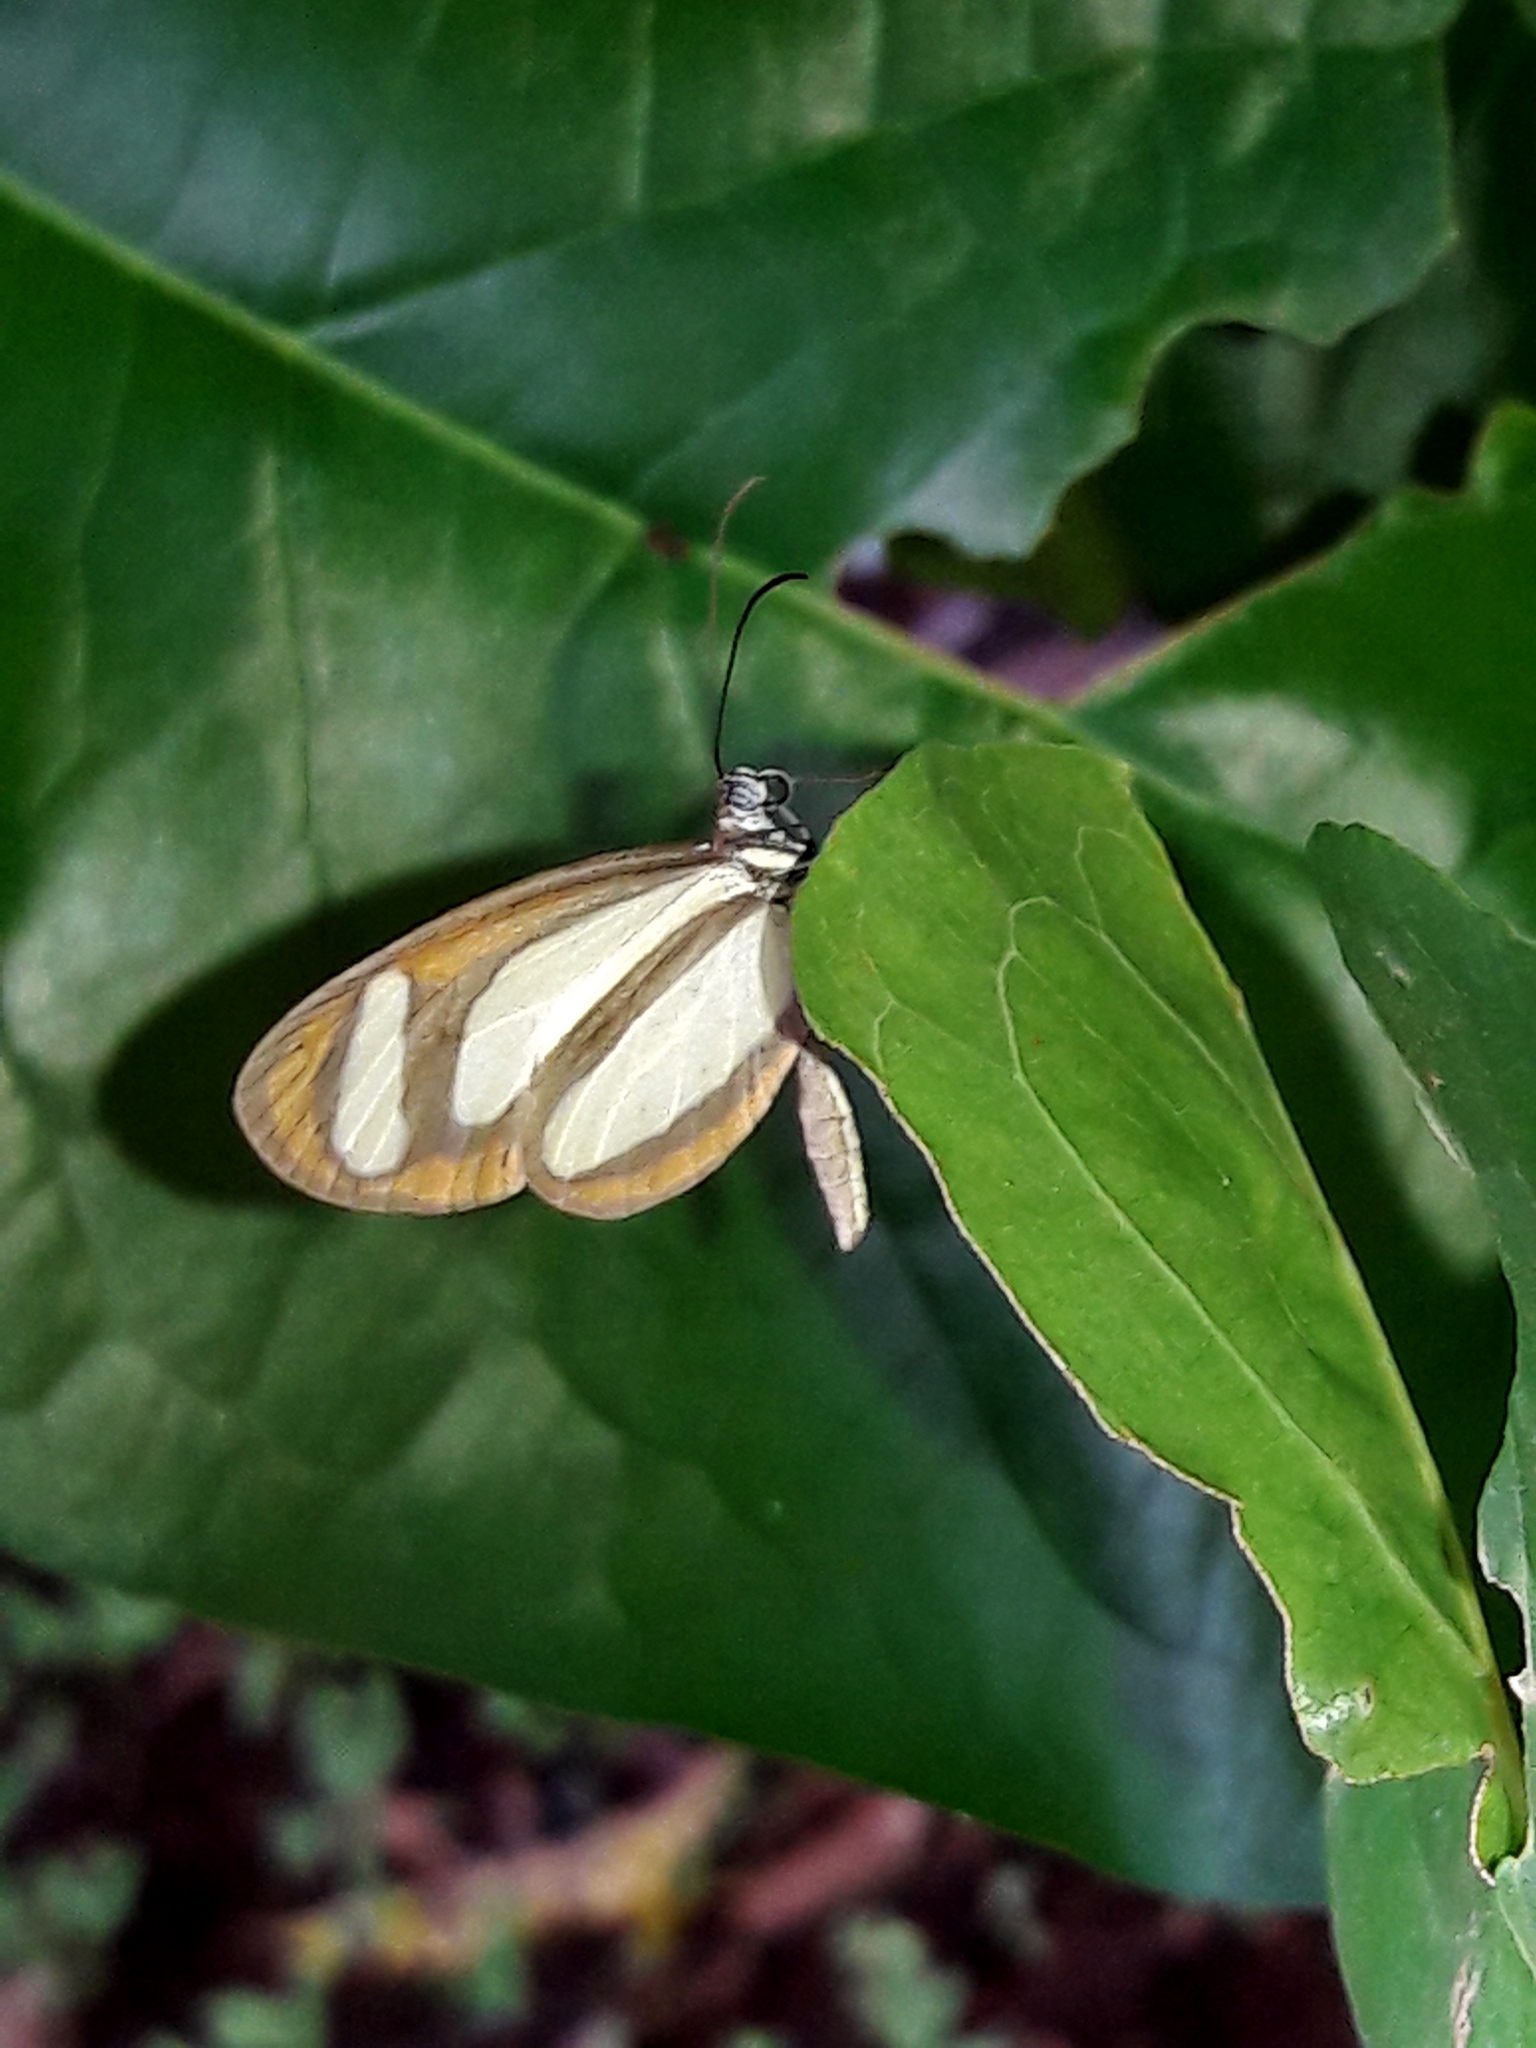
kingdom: Animalia
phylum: Arthropoda
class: Insecta
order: Lepidoptera
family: Nymphalidae
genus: Aeria
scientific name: Aeria elara
